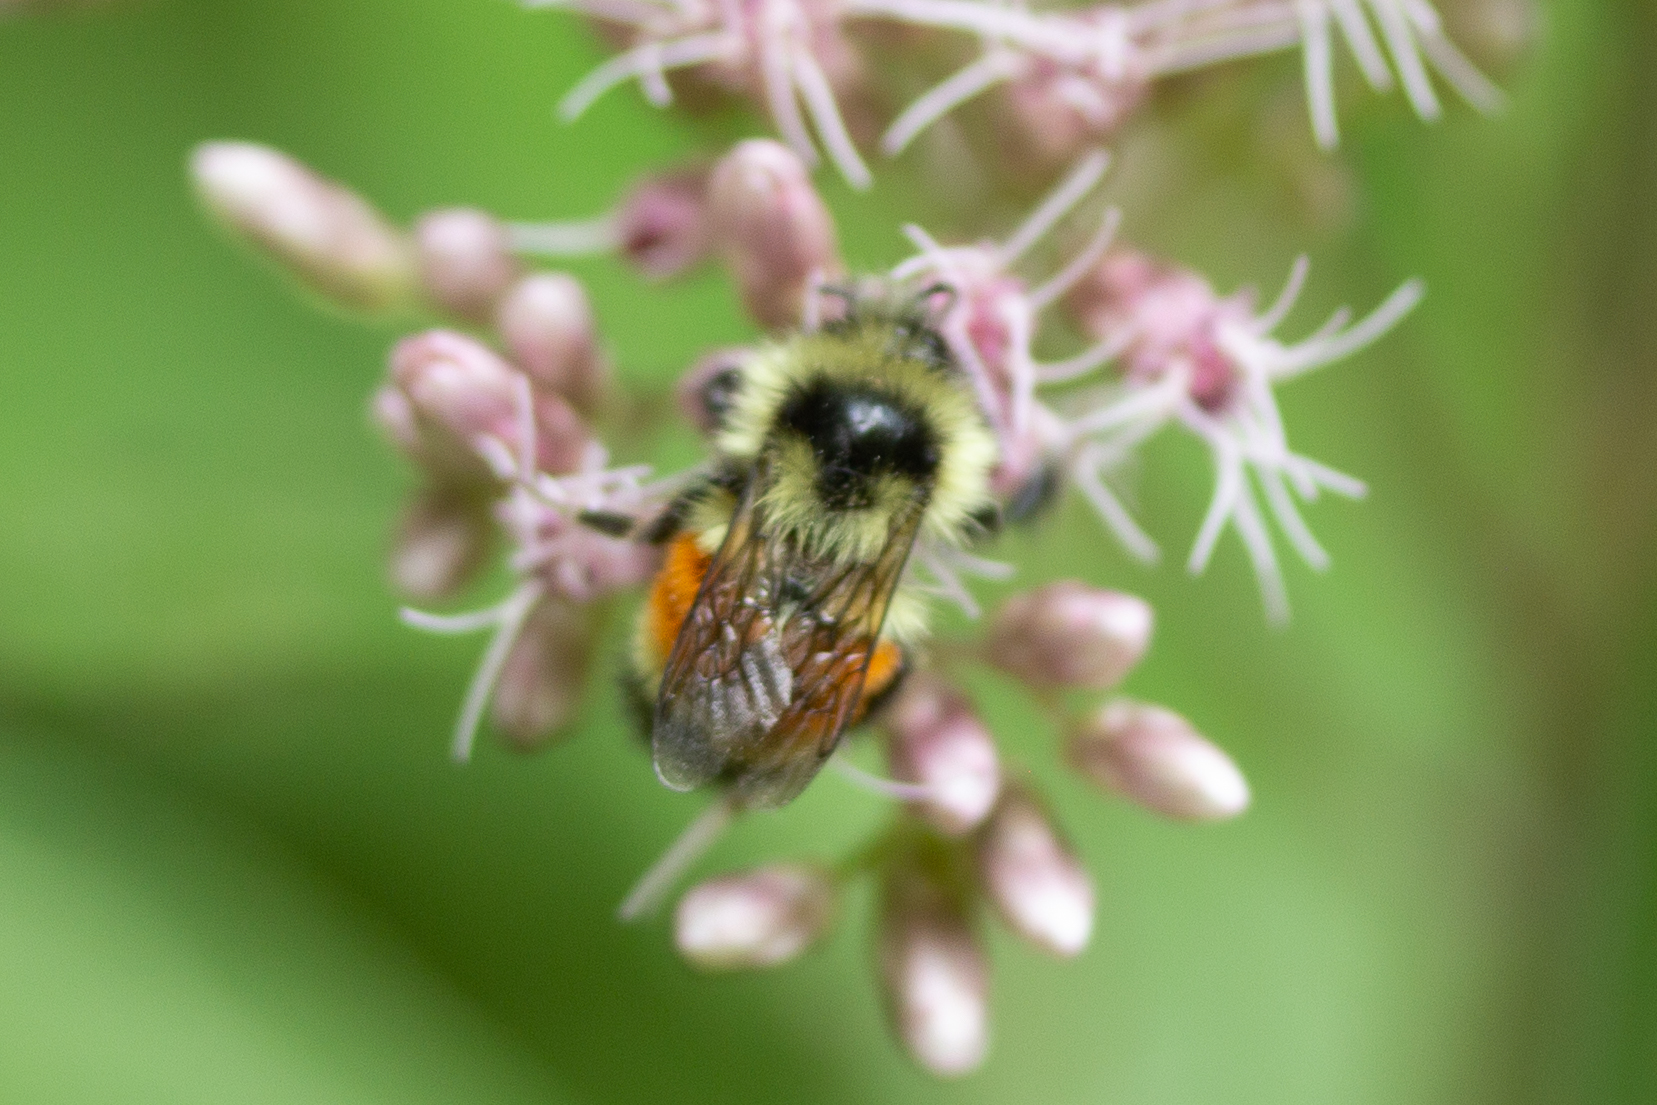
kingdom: Animalia
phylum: Arthropoda
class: Insecta
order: Hymenoptera
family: Apidae
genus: Bombus
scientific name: Bombus ternarius
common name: Tri-colored bumble bee
